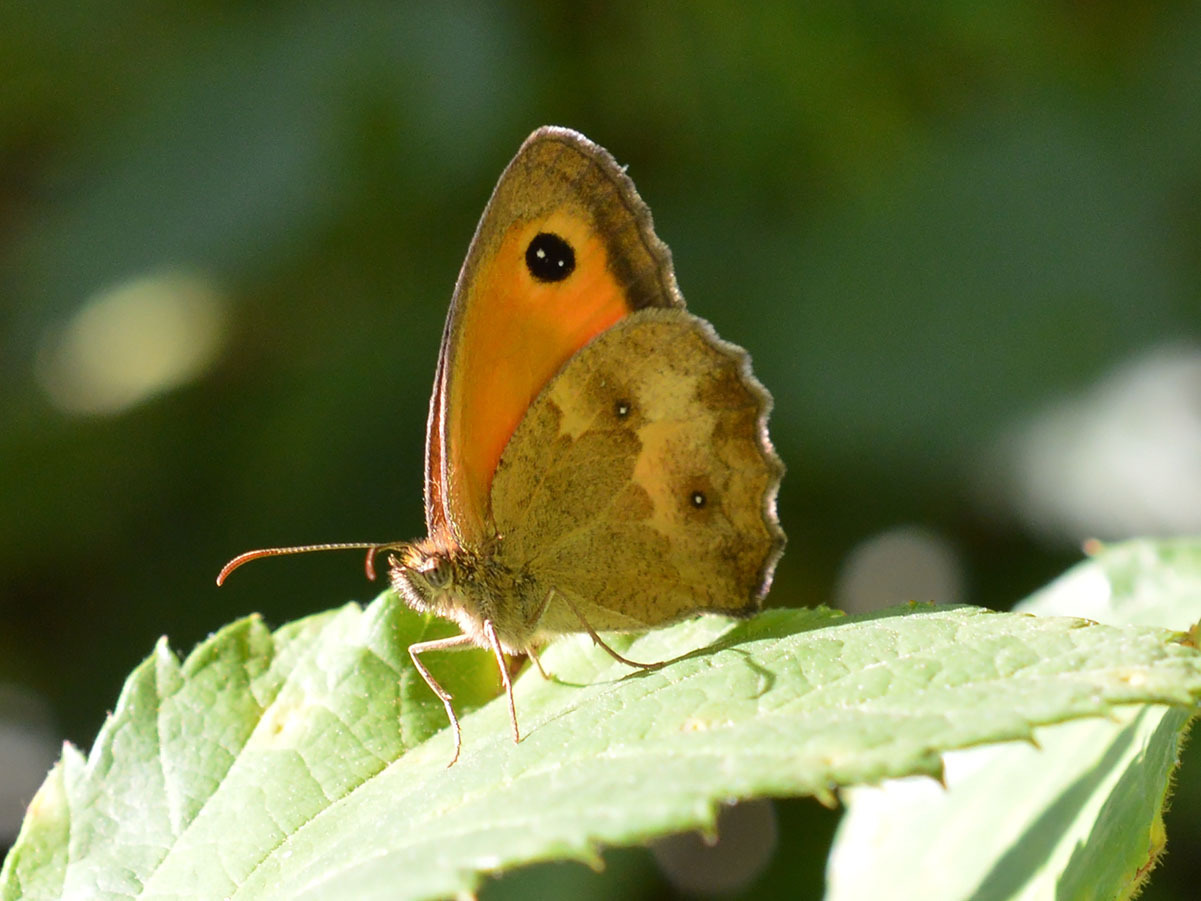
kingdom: Animalia
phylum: Arthropoda
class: Insecta
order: Lepidoptera
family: Nymphalidae
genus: Pyronia
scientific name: Pyronia tithonus
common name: Gatekeeper
